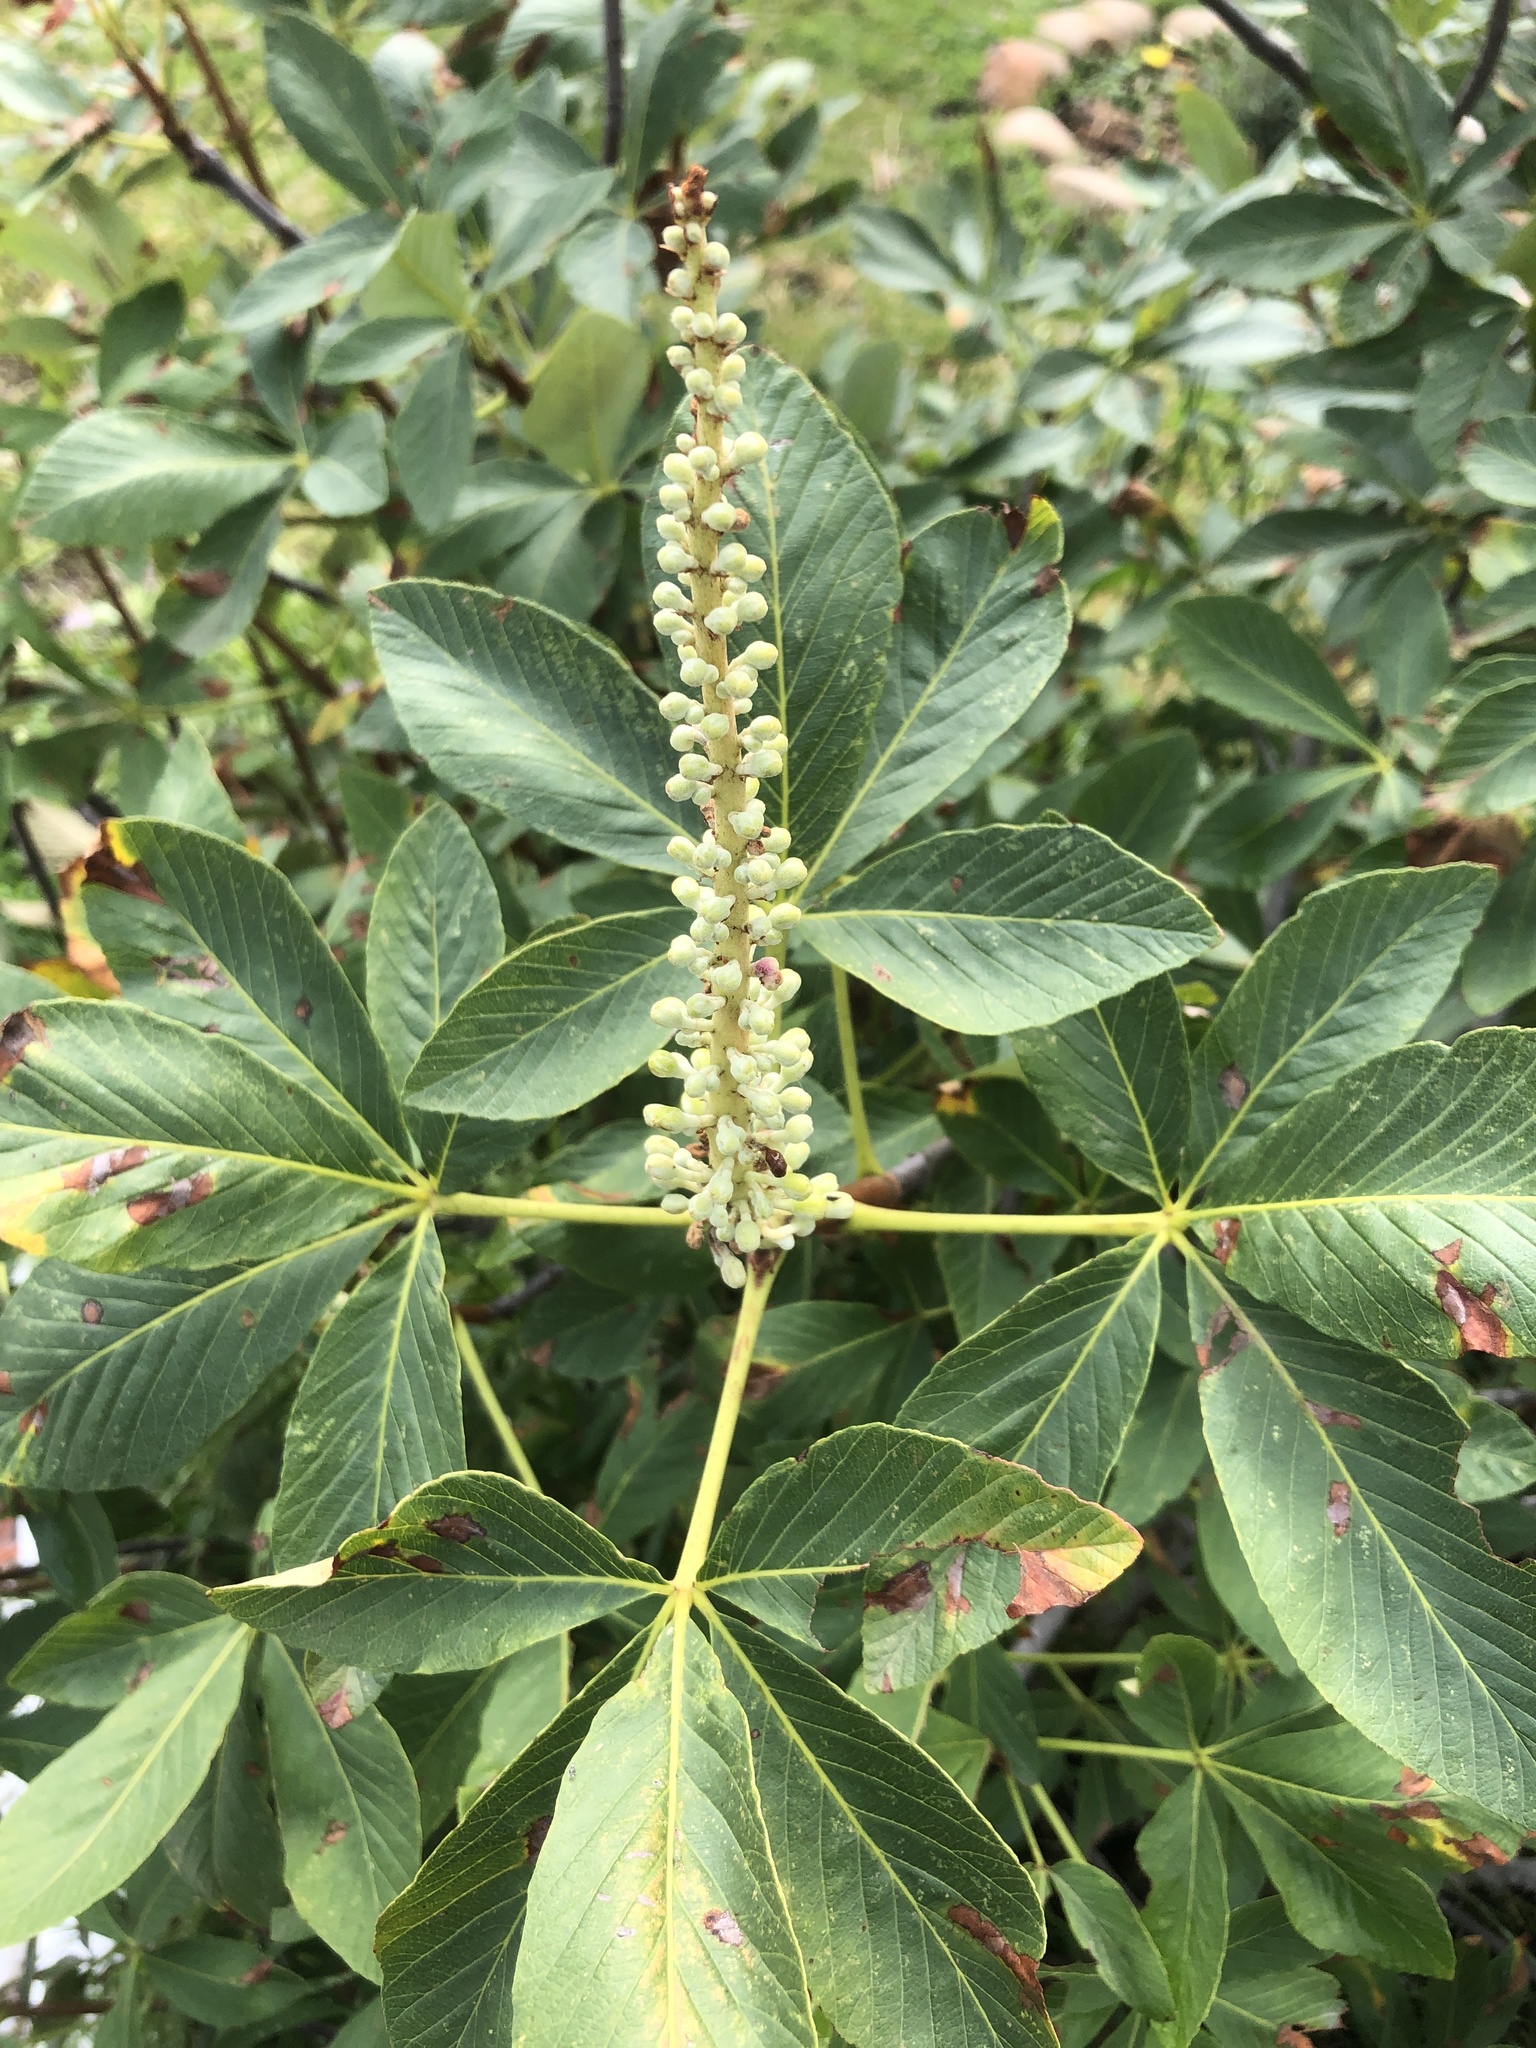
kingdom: Plantae
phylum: Tracheophyta
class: Magnoliopsida
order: Sapindales
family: Sapindaceae
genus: Aesculus
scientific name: Aesculus parryi
